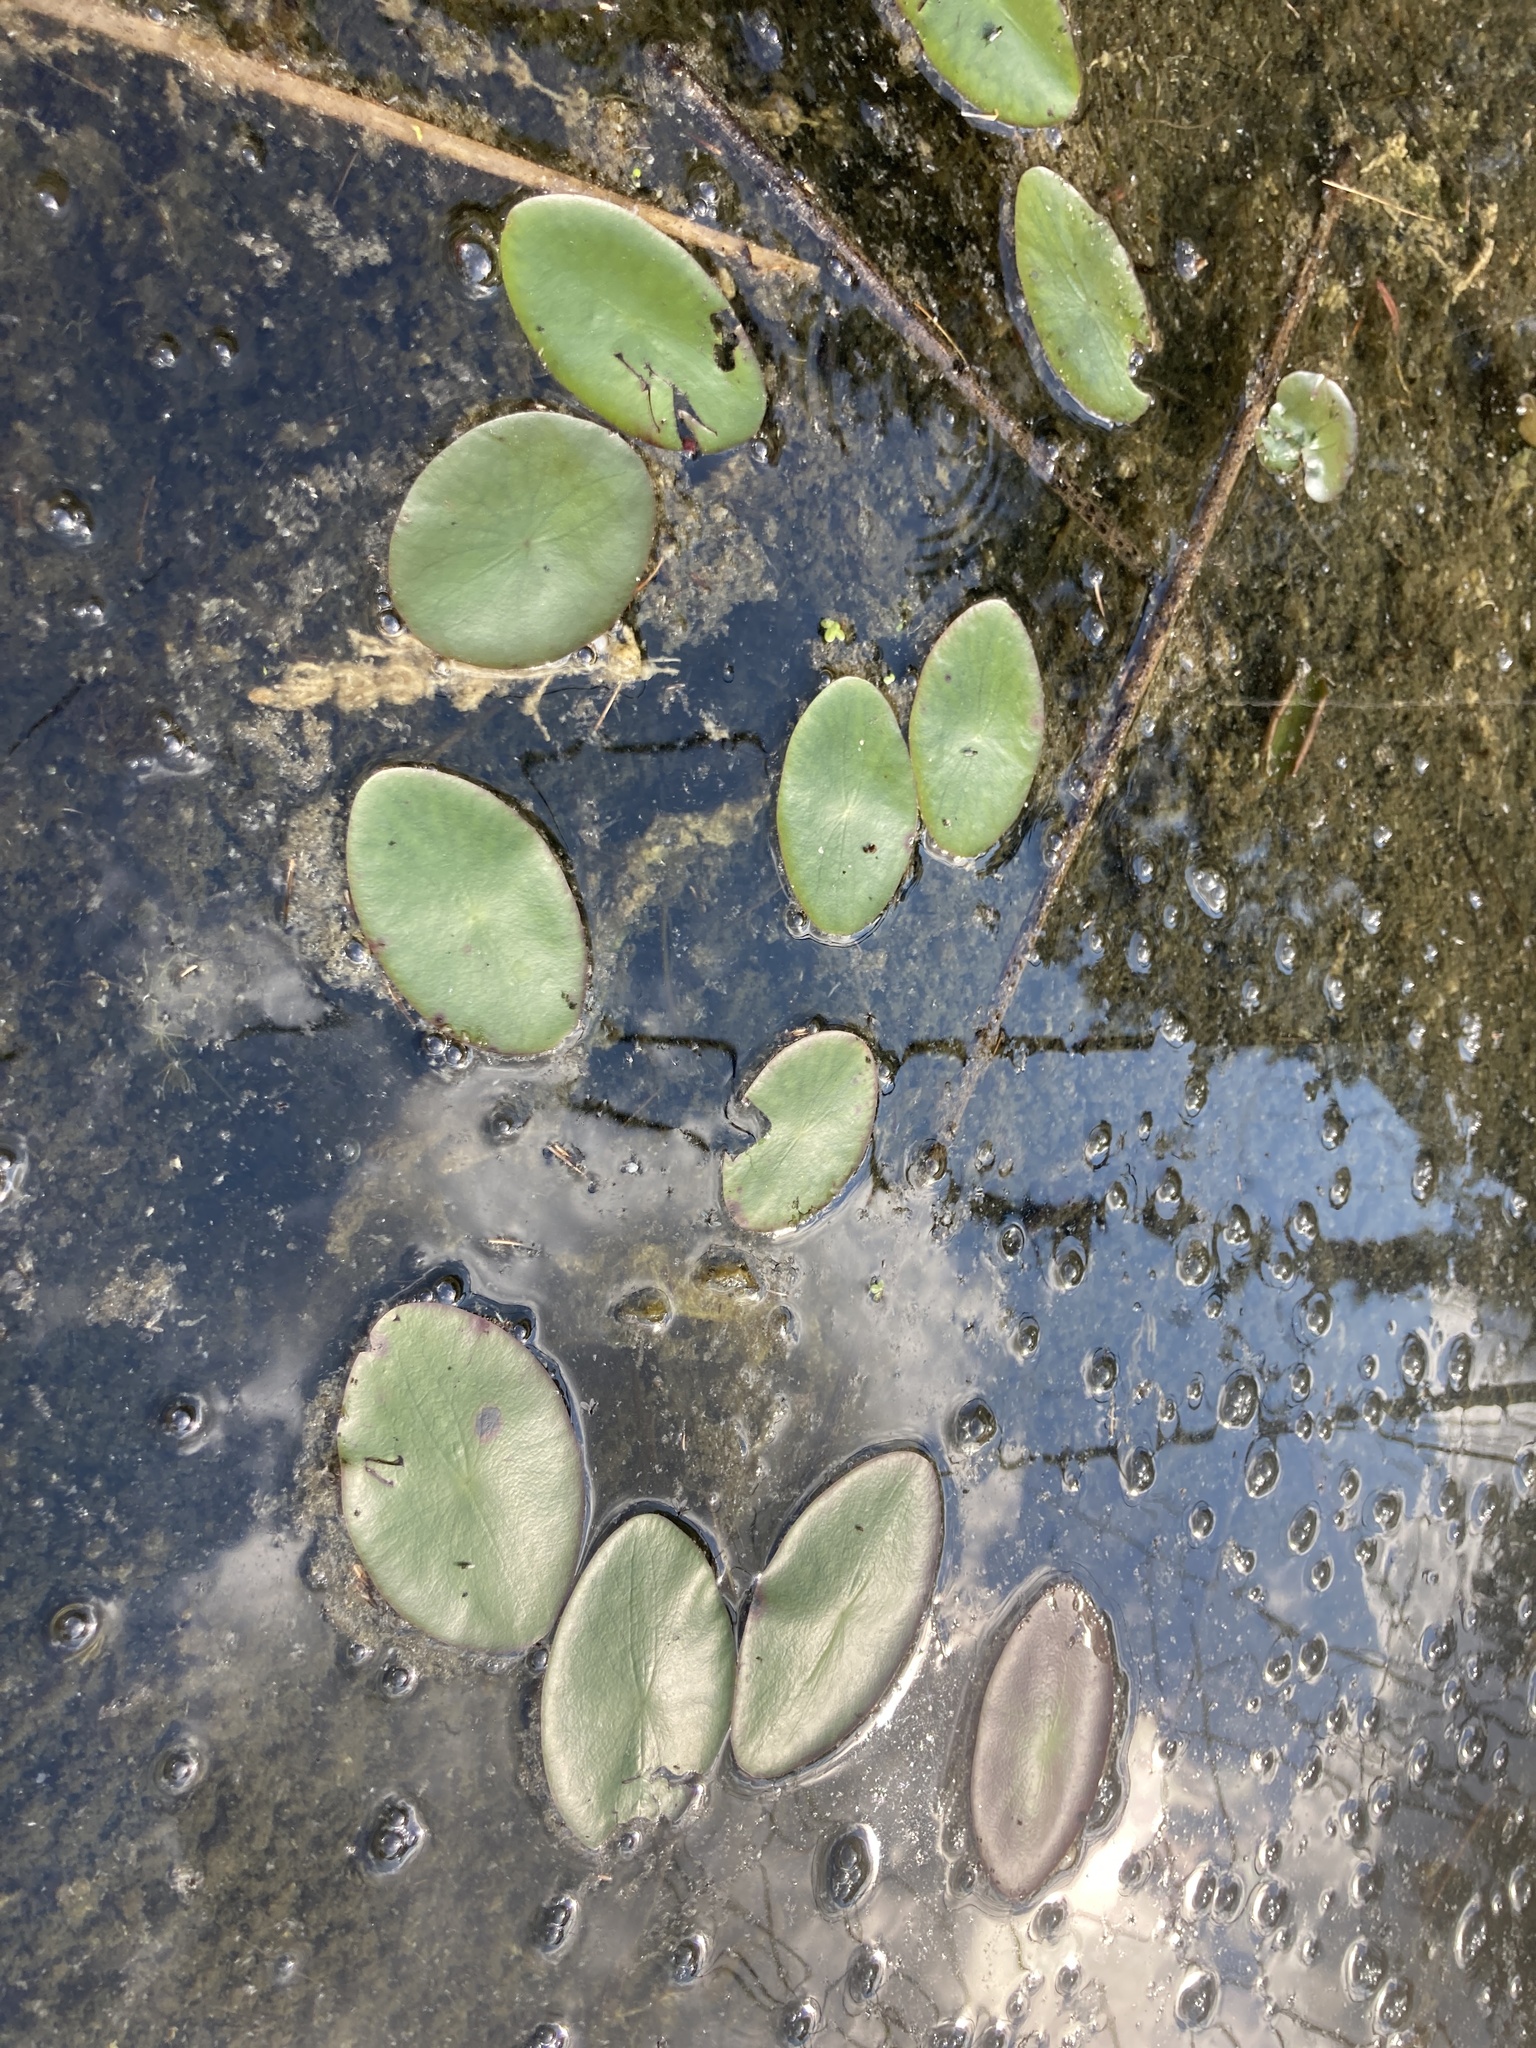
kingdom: Plantae
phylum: Tracheophyta
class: Magnoliopsida
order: Nymphaeales
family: Cabombaceae
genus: Brasenia
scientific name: Brasenia schreberi
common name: Water-shield
